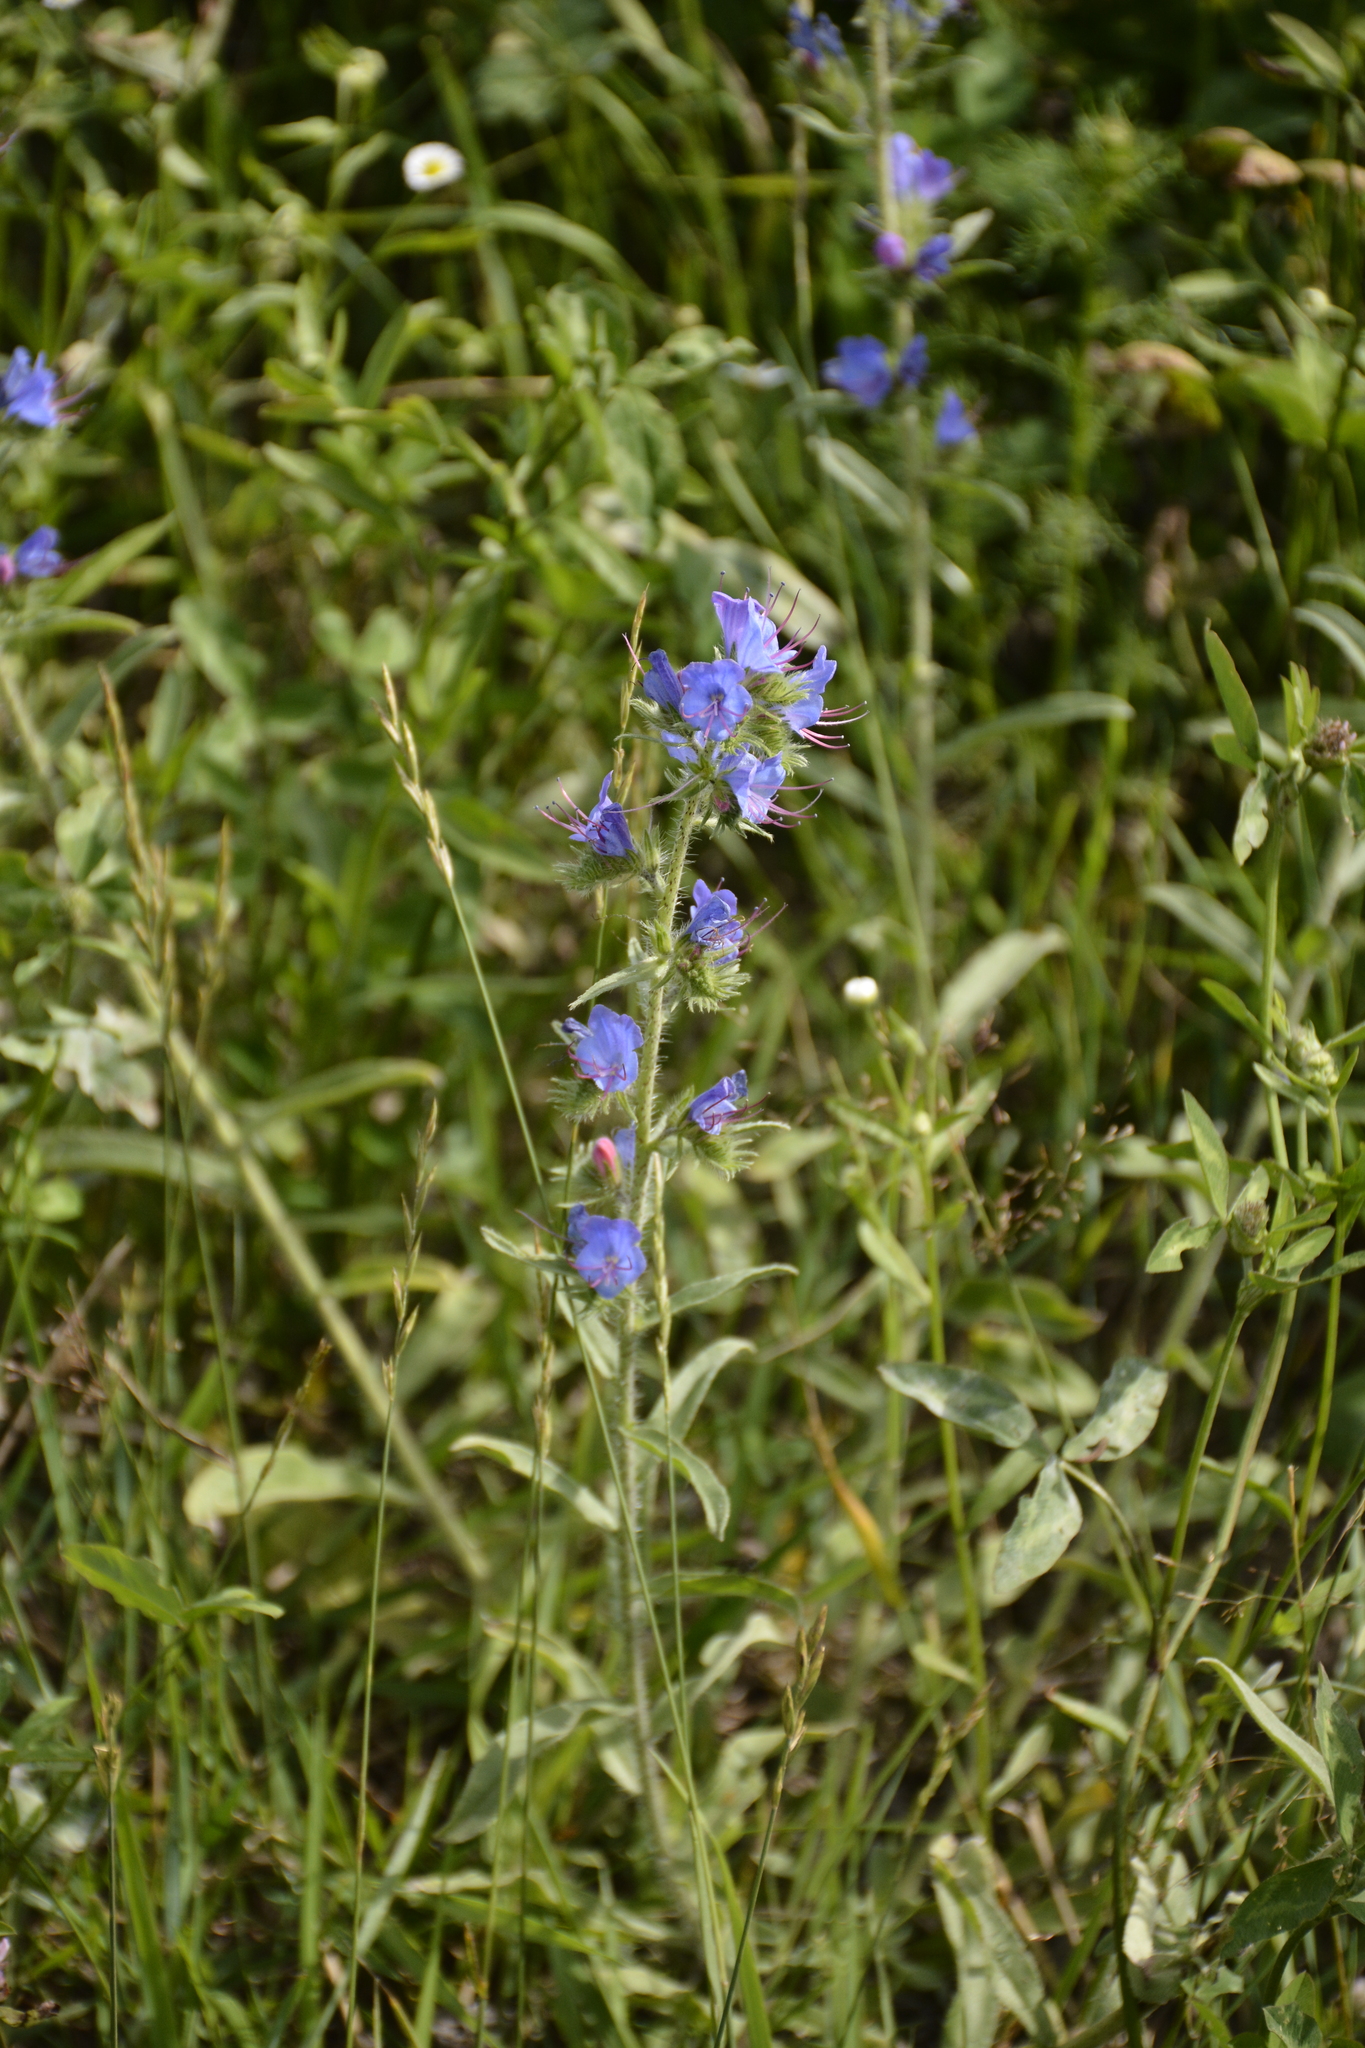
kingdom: Plantae
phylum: Tracheophyta
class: Magnoliopsida
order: Boraginales
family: Boraginaceae
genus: Echium
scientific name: Echium vulgare
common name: Common viper's bugloss
